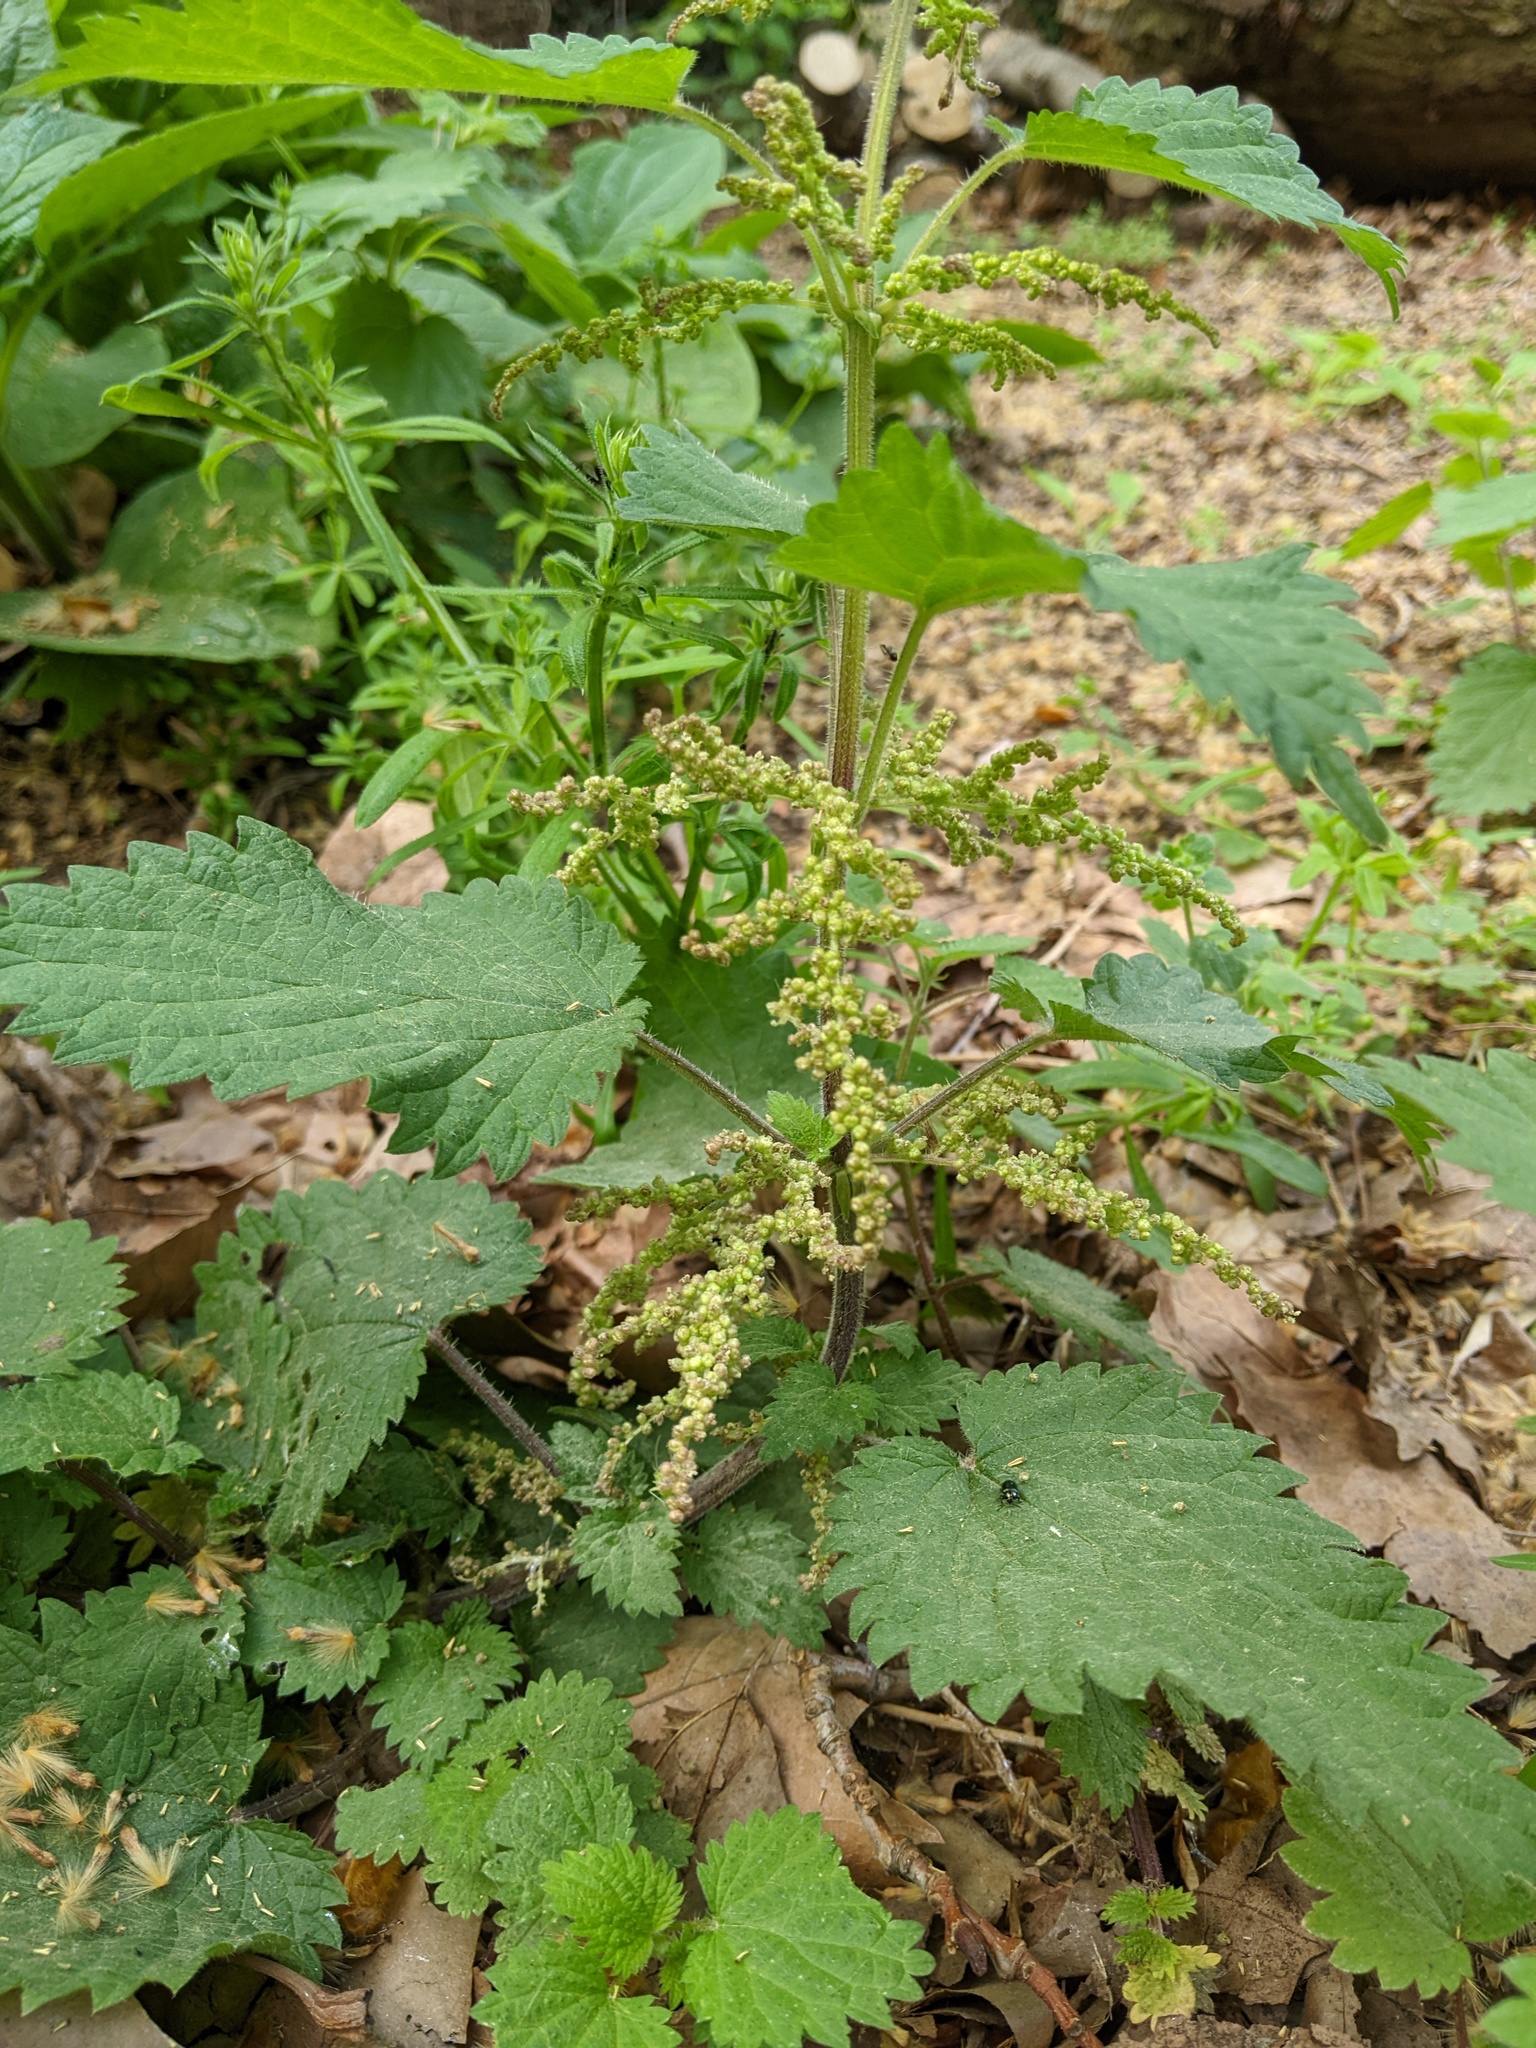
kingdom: Plantae
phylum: Tracheophyta
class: Magnoliopsida
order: Rosales
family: Urticaceae
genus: Urtica
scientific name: Urtica dioica
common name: Common nettle
